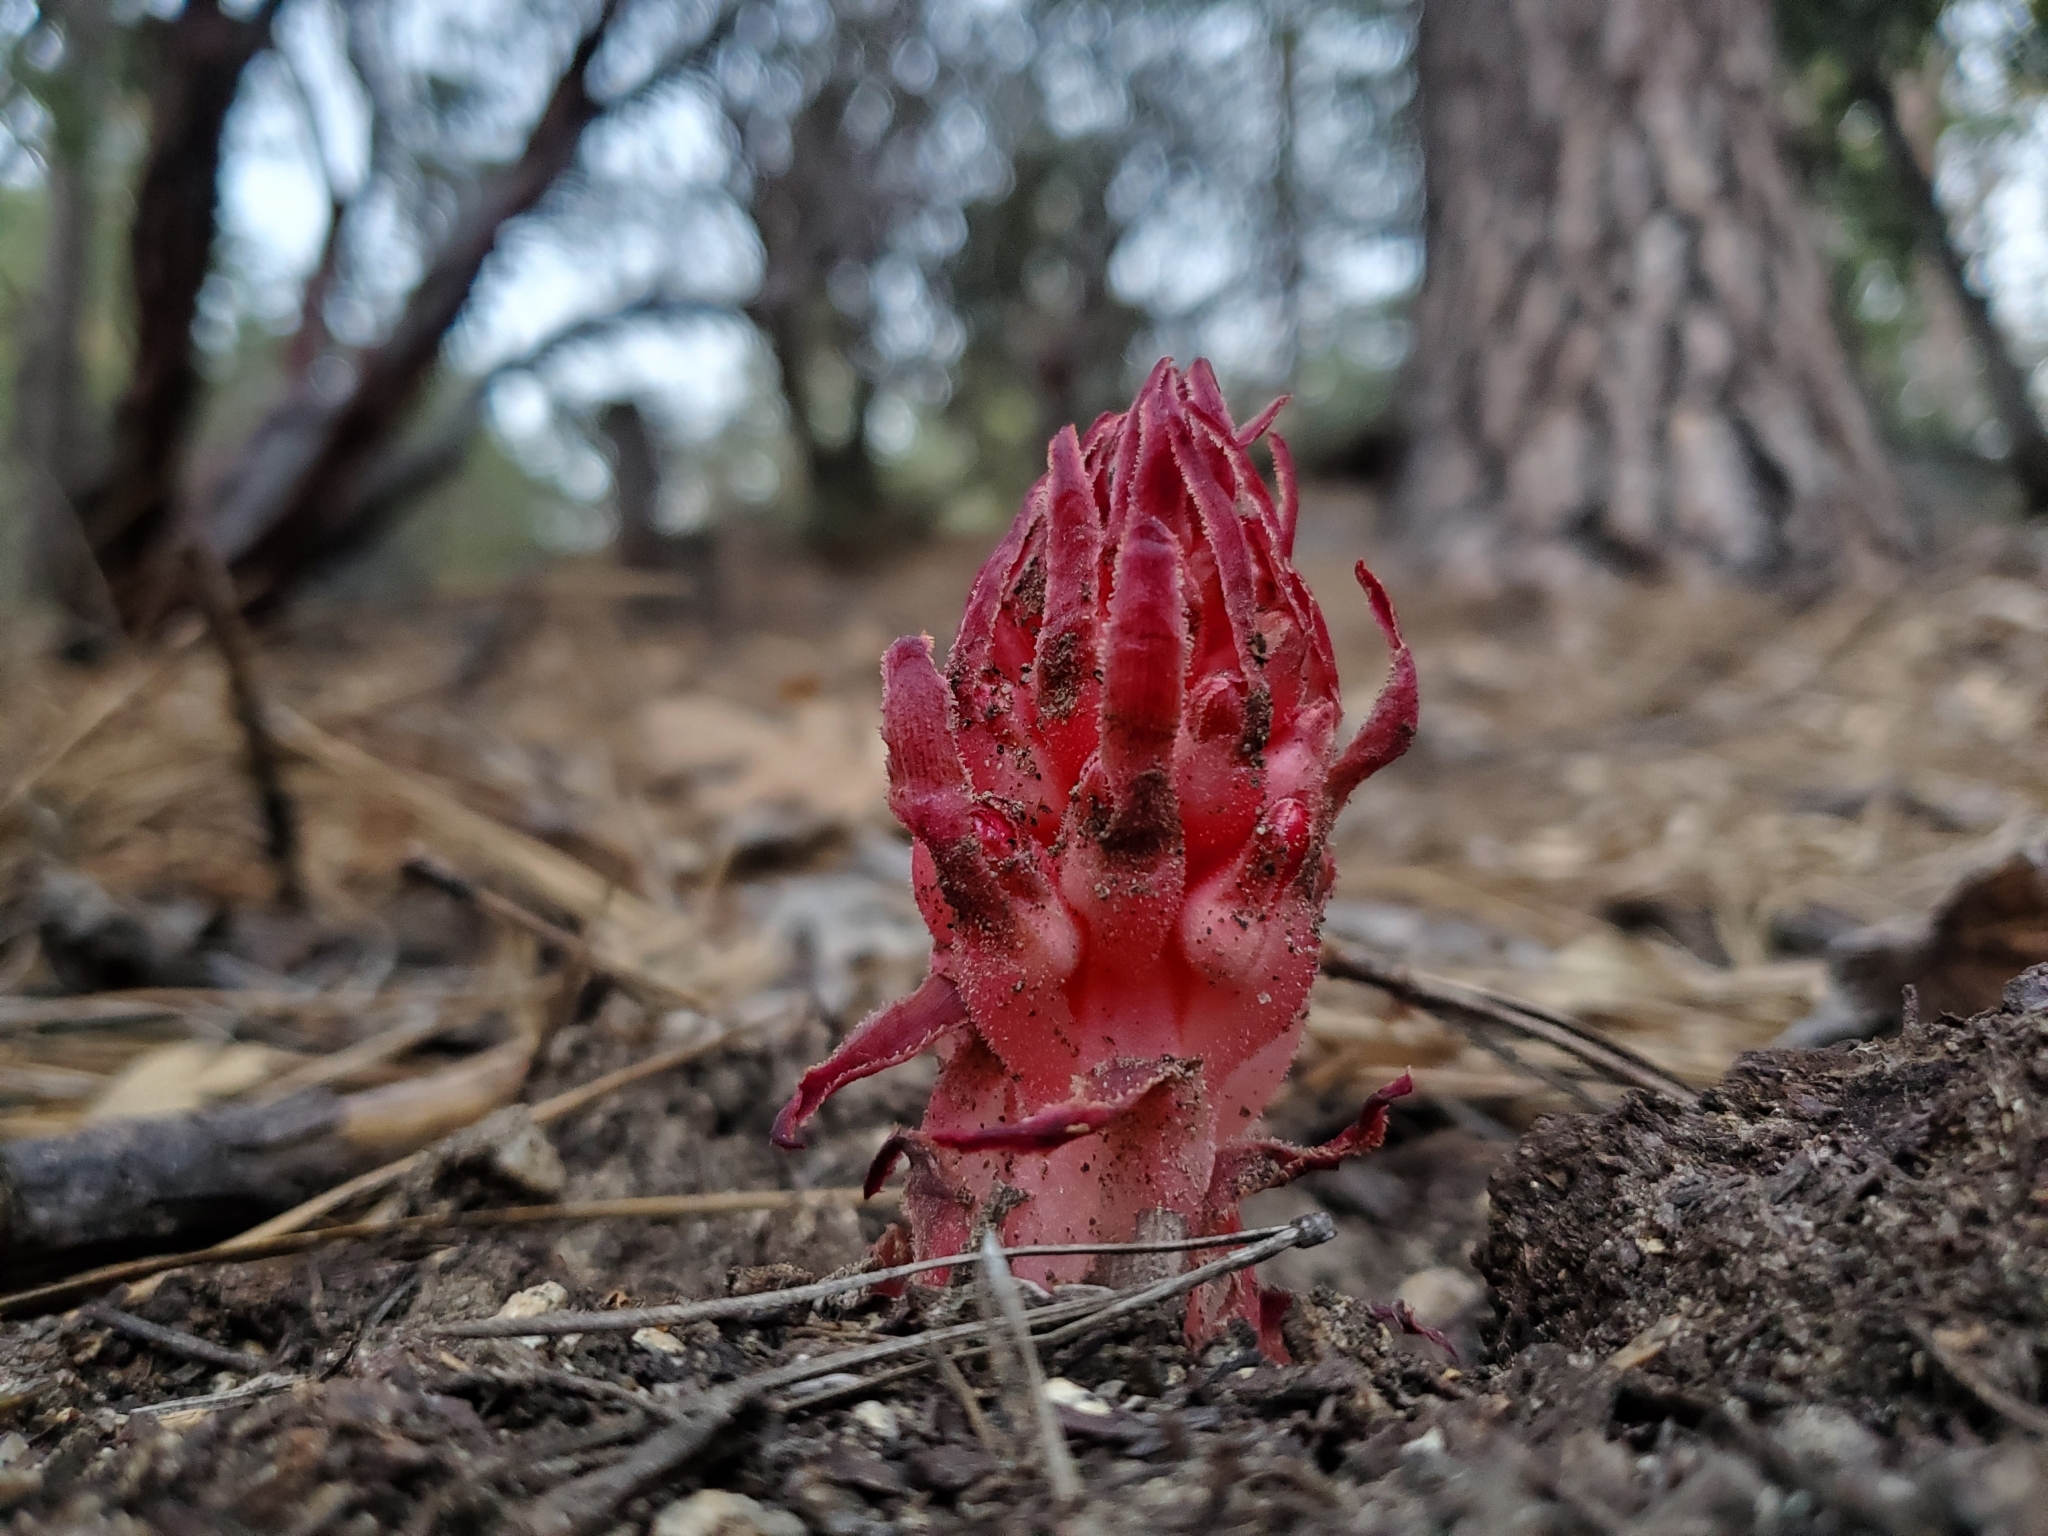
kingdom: Plantae
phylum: Tracheophyta
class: Magnoliopsida
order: Ericales
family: Ericaceae
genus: Sarcodes
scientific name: Sarcodes sanguinea
